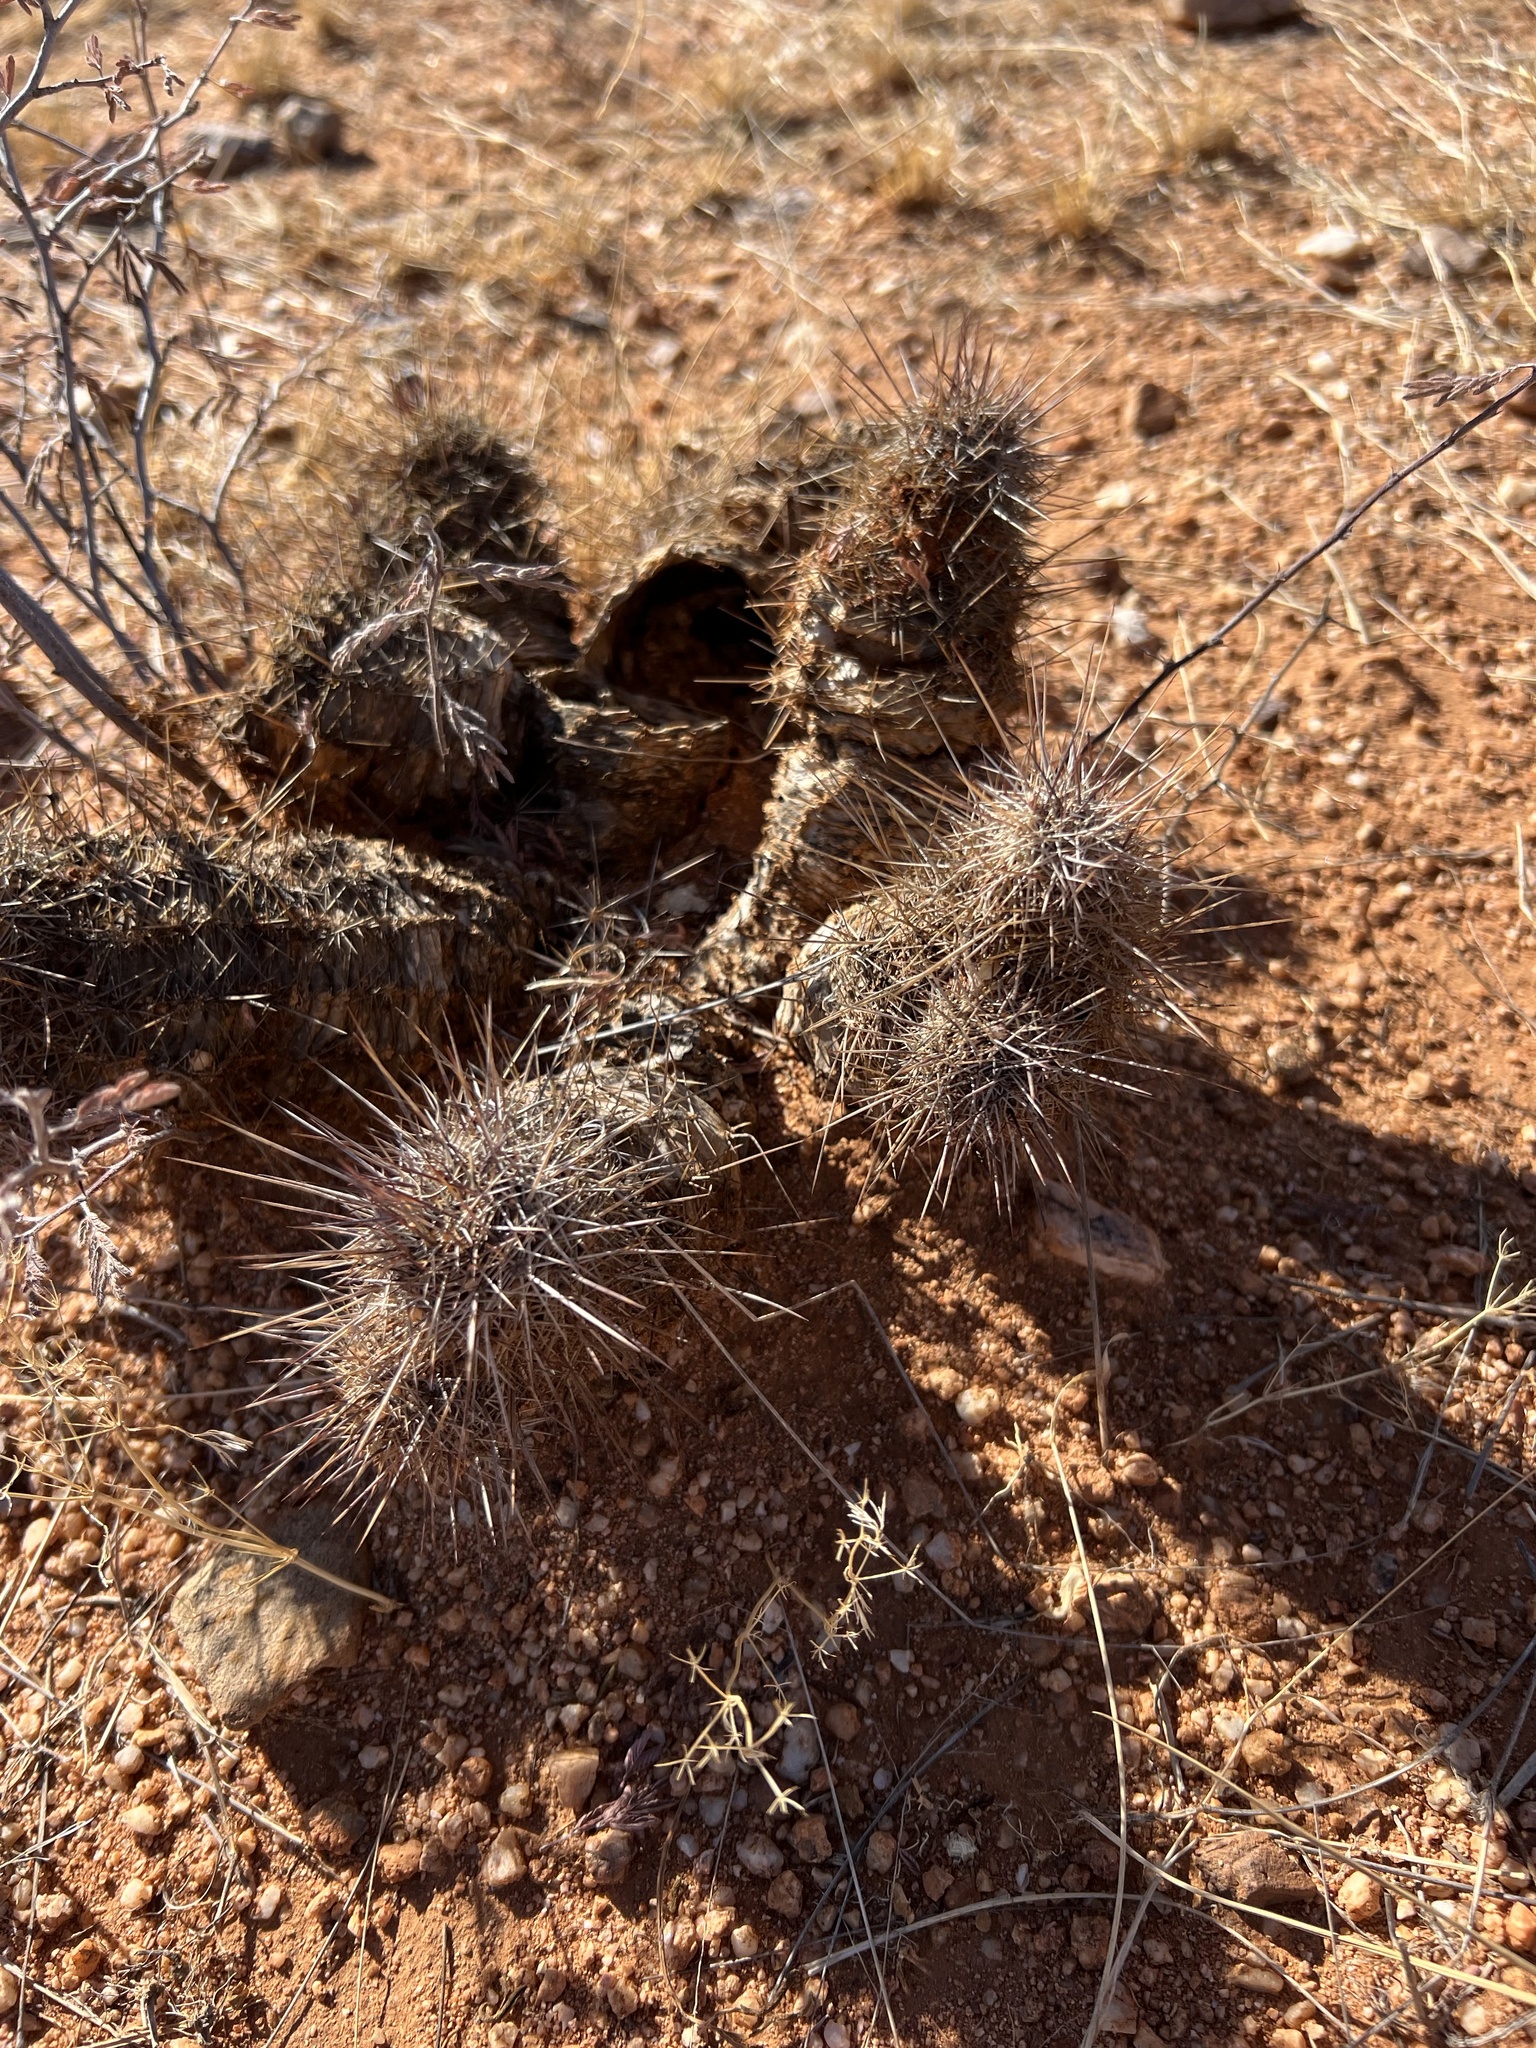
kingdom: Plantae
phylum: Tracheophyta
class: Magnoliopsida
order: Caryophyllales
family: Cactaceae
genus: Echinocereus
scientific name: Echinocereus fasciculatus
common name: Bundle hedgehog
